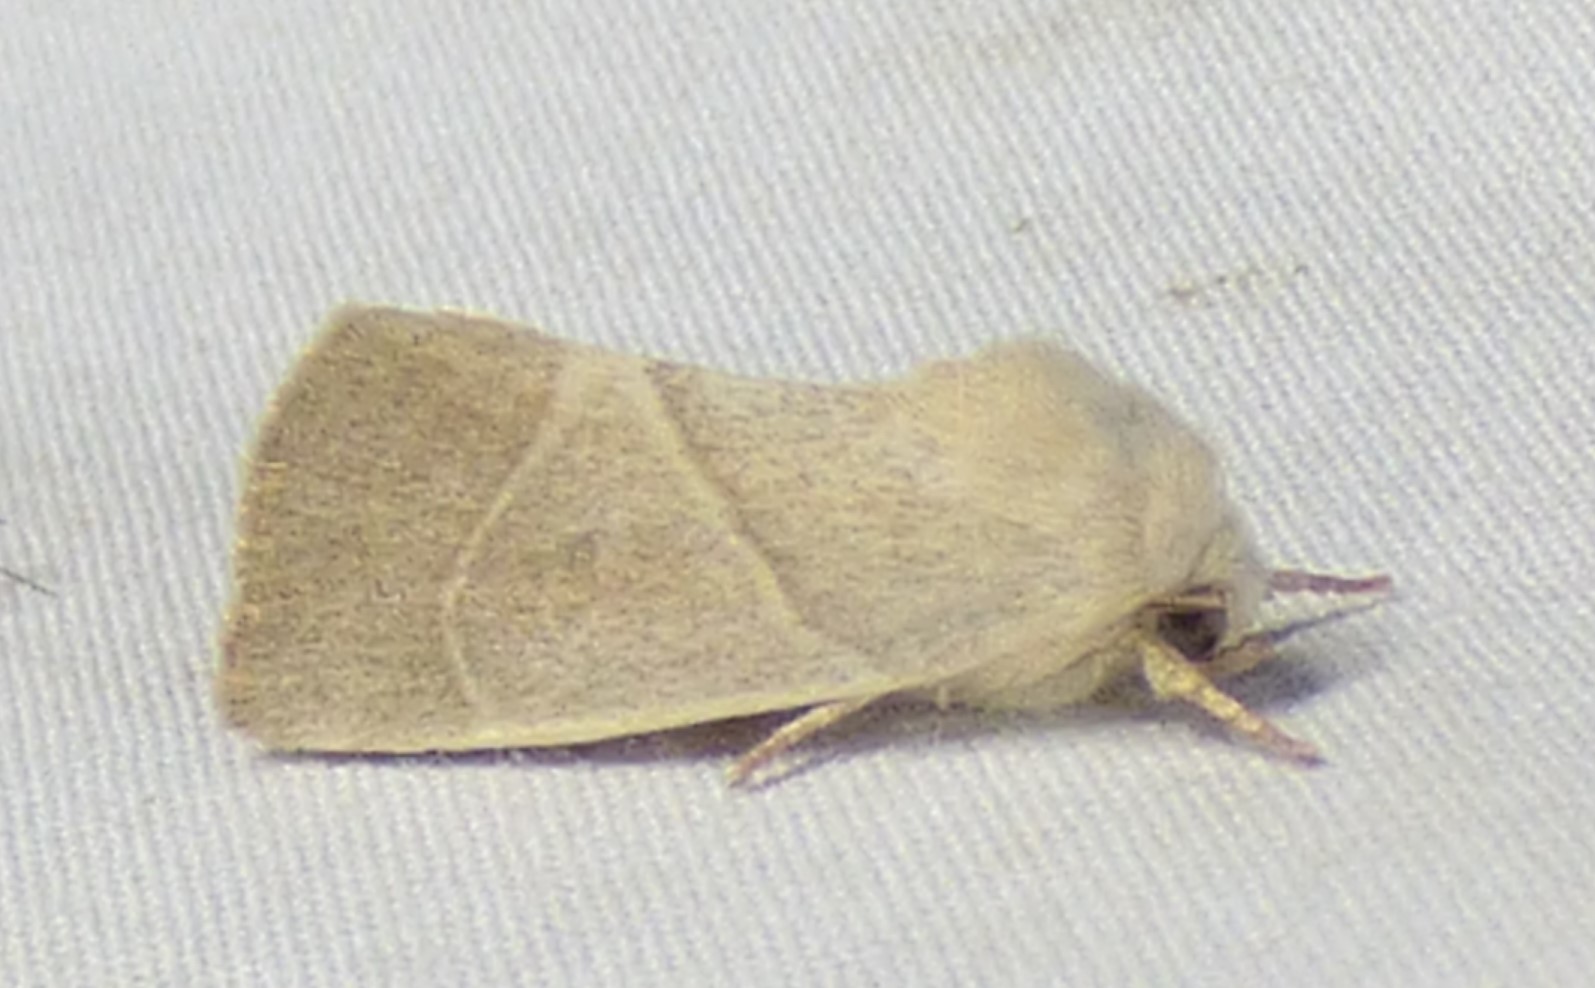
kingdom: Animalia
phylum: Arthropoda
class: Insecta
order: Lepidoptera
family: Noctuidae
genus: Cosmia
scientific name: Cosmia calami
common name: American dun-bar moth
